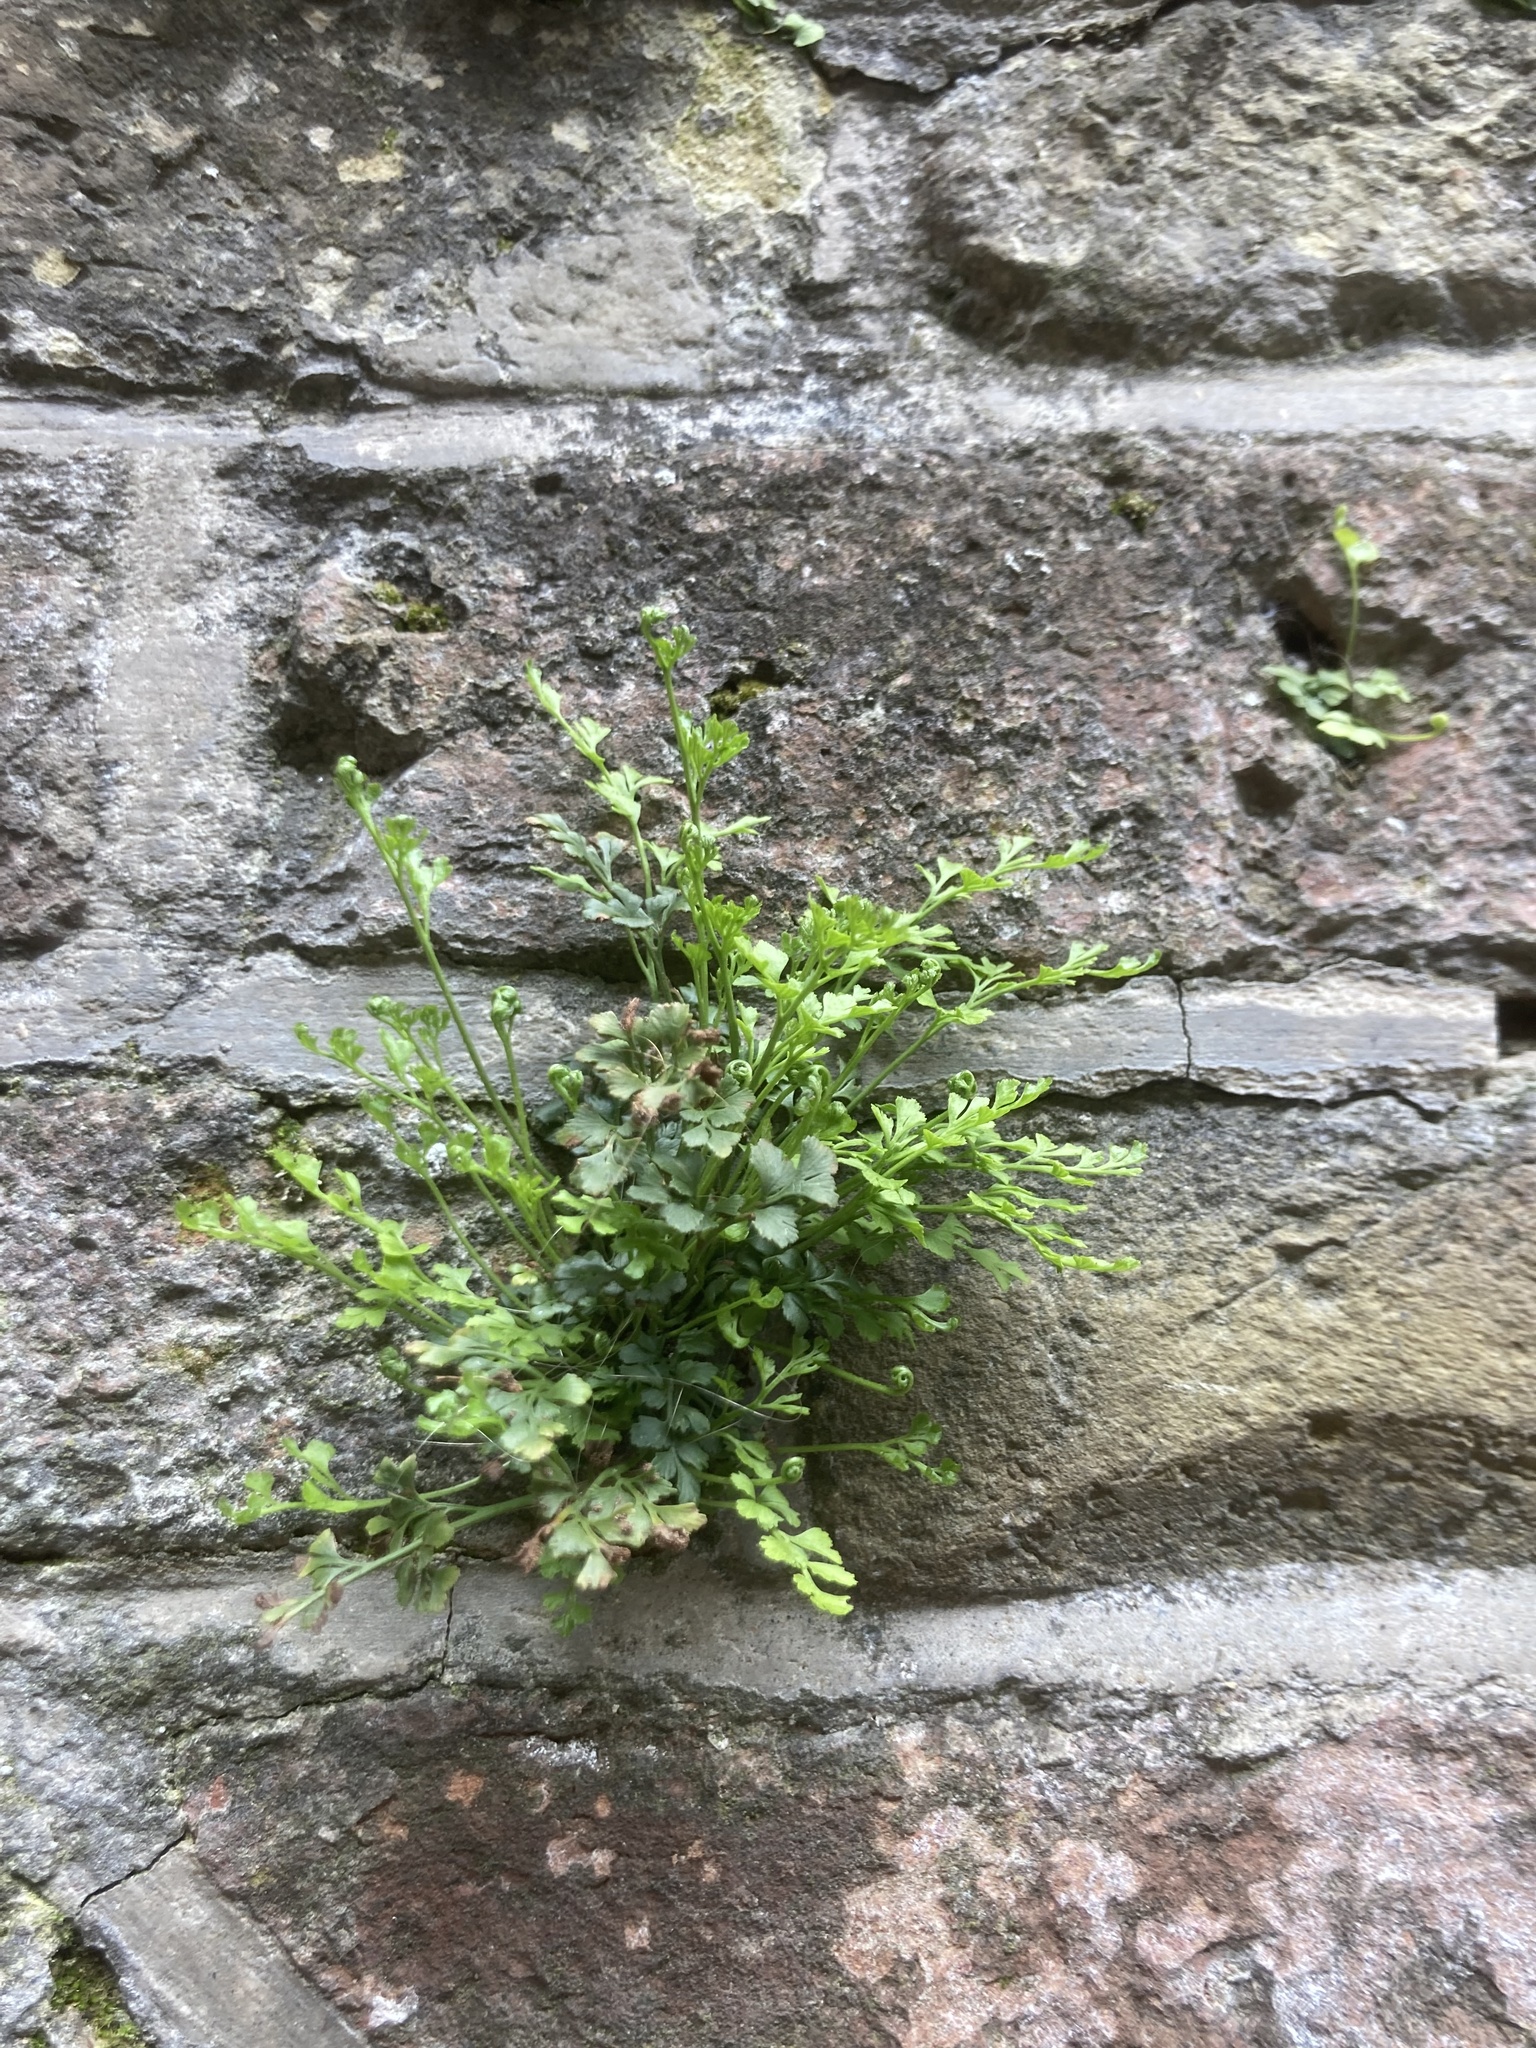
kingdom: Plantae
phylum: Tracheophyta
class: Polypodiopsida
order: Polypodiales
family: Aspleniaceae
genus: Asplenium
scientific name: Asplenium ruta-muraria
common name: Wall-rue
